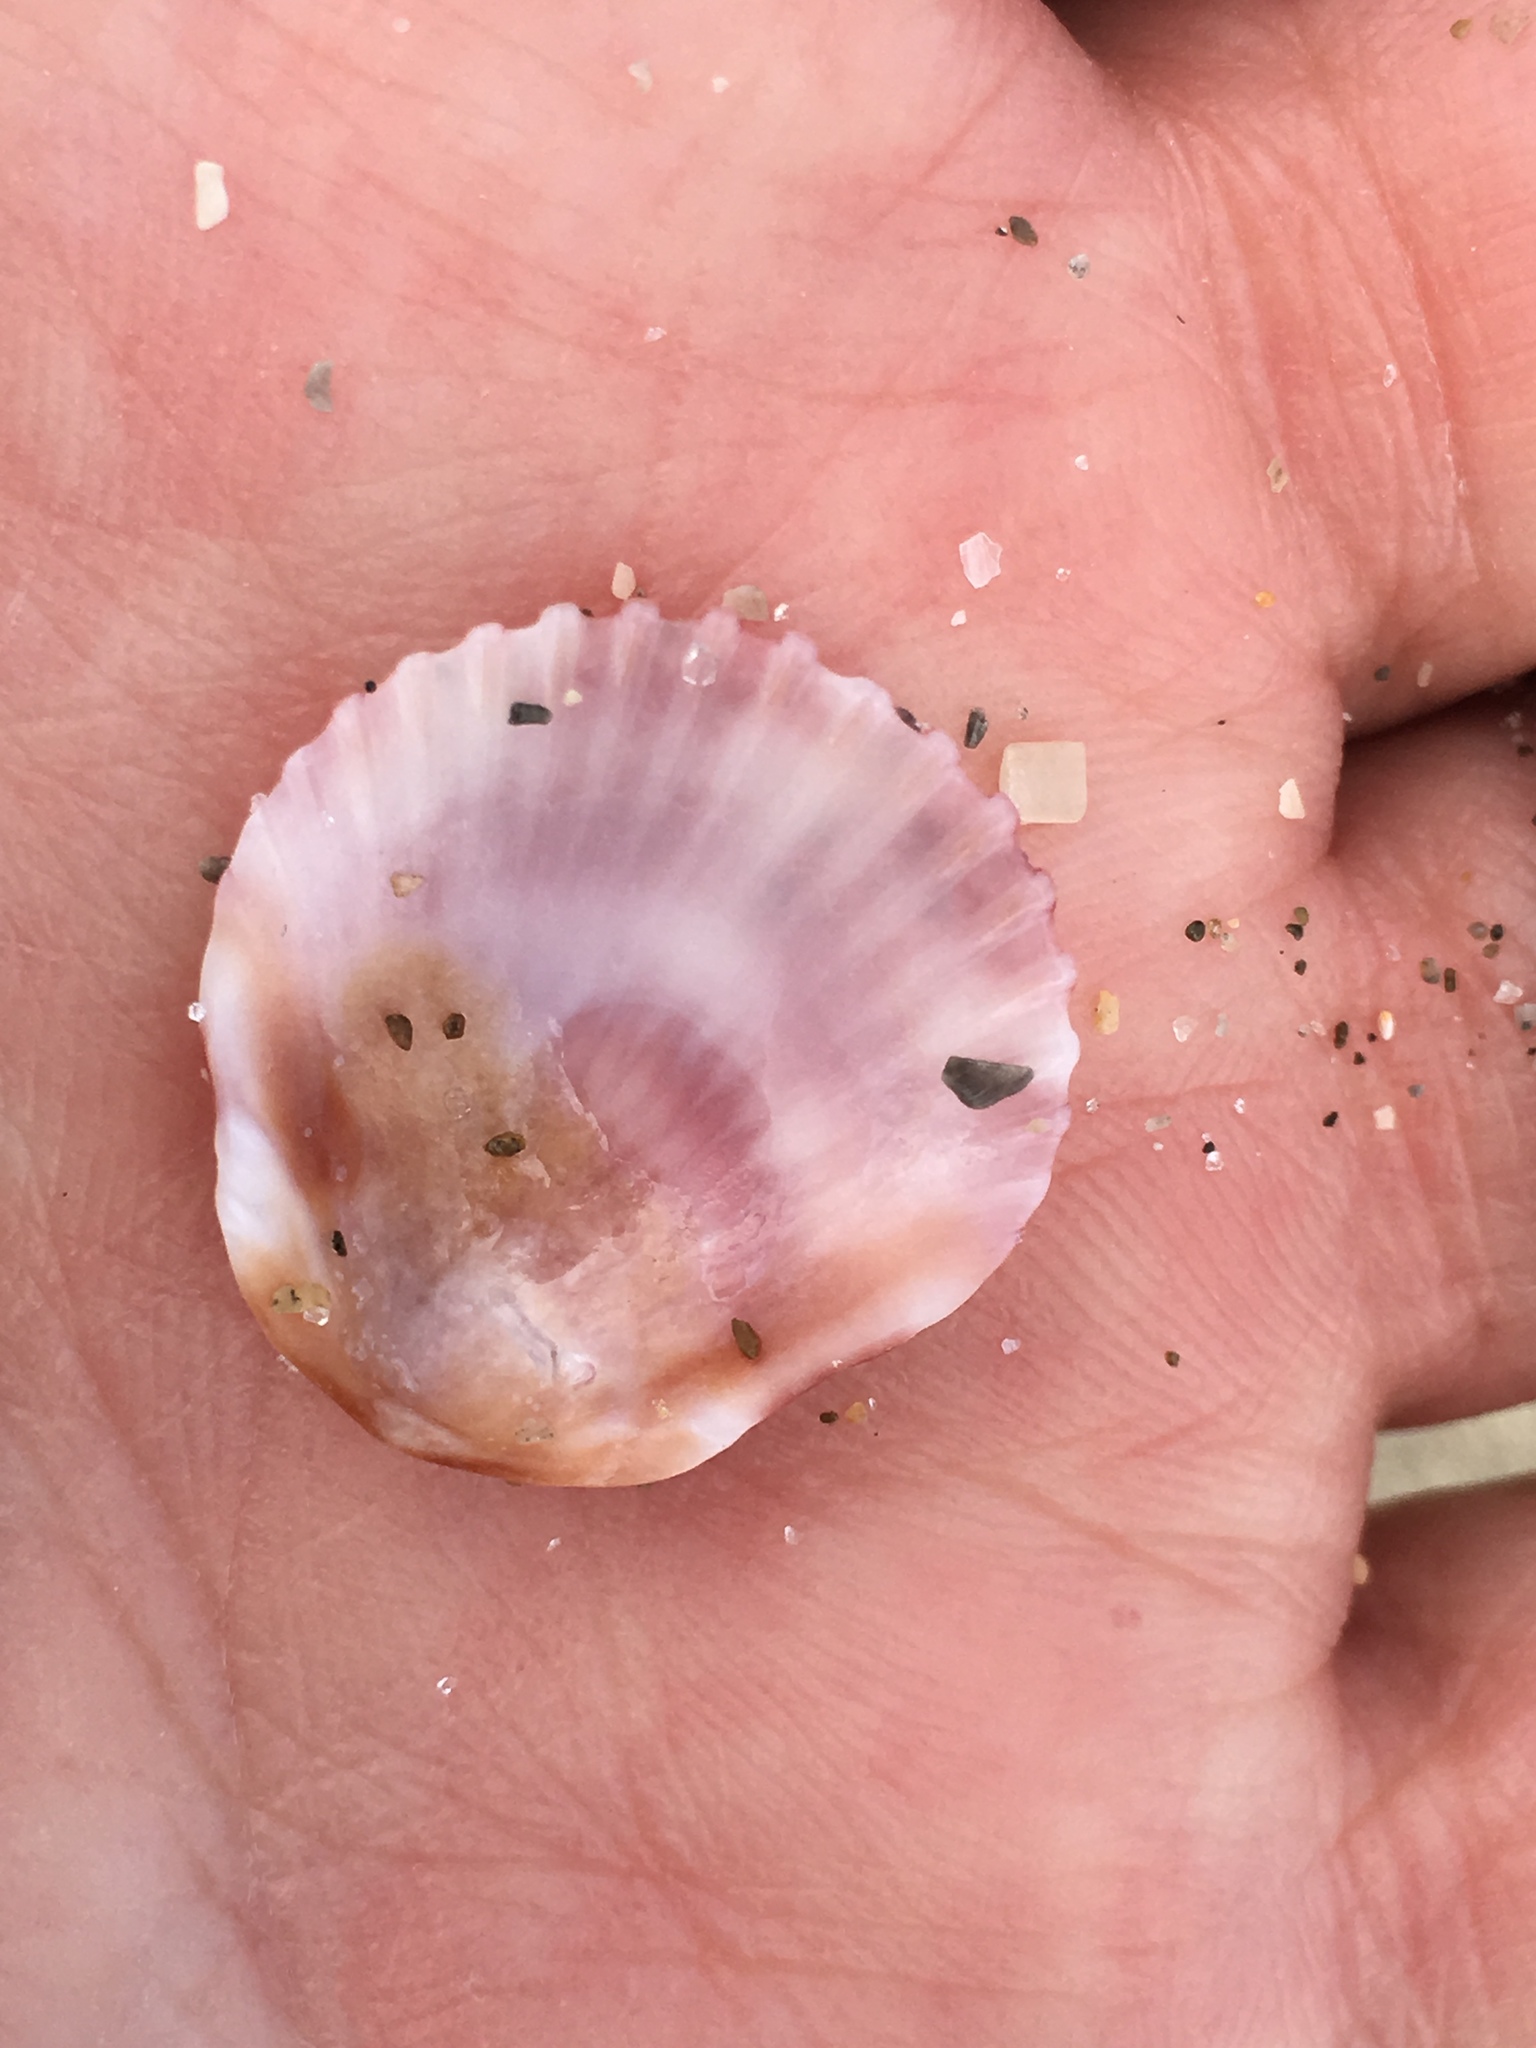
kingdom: Animalia
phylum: Mollusca
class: Bivalvia
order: Pectinida
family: Pectinidae
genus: Argopecten
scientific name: Argopecten gibbus
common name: Atlantic calico scallop
